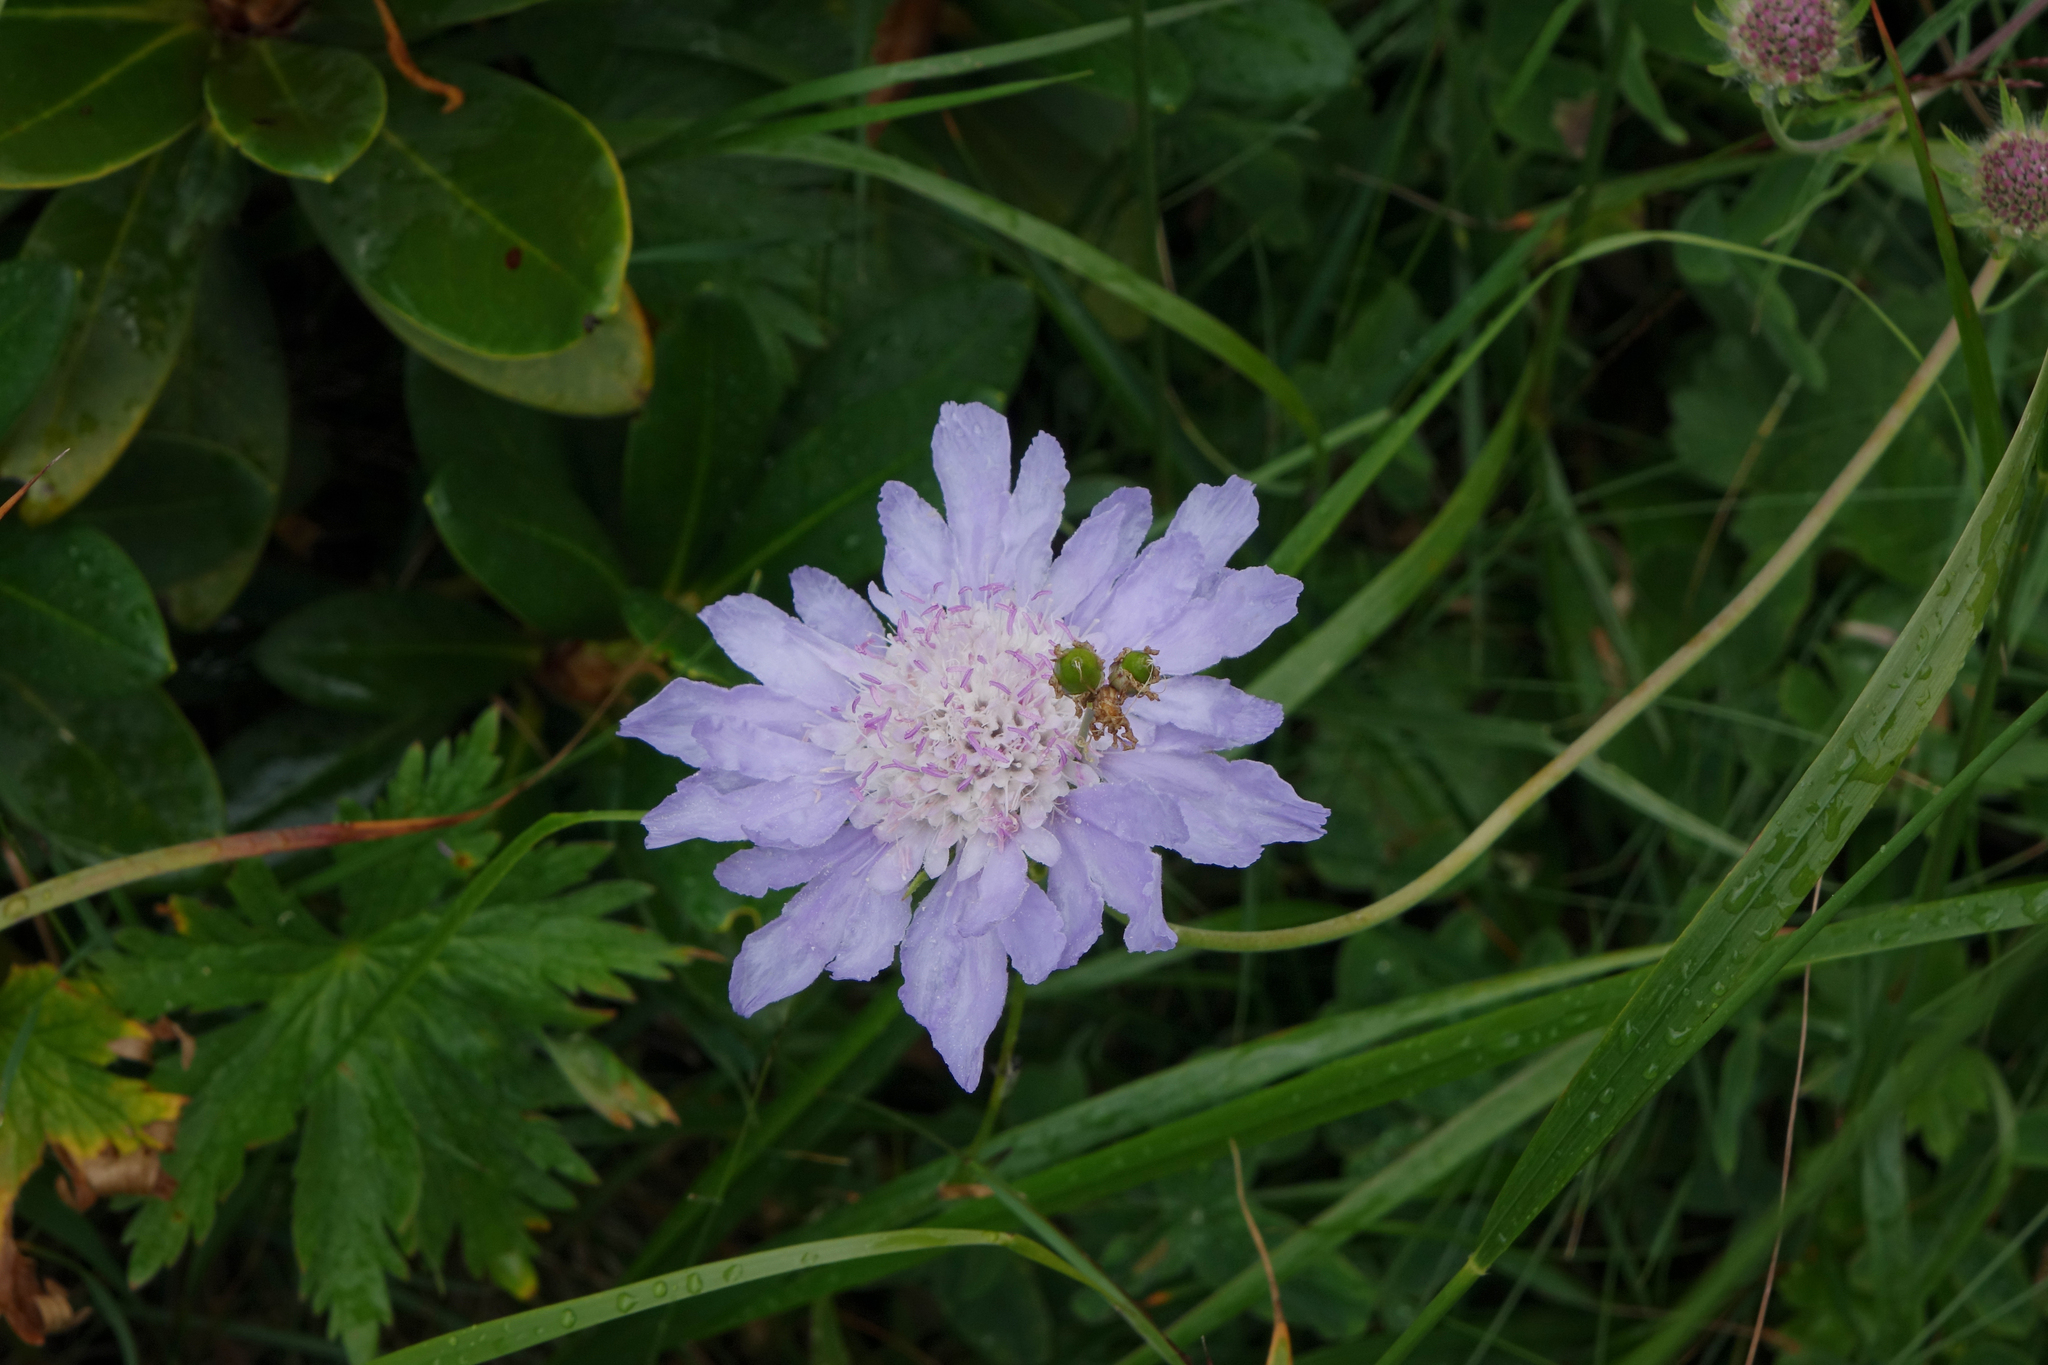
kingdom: Plantae
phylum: Tracheophyta
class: Magnoliopsida
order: Dipsacales
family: Caprifoliaceae
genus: Lomelosia
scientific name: Lomelosia caucasica
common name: Pincushion-flower
